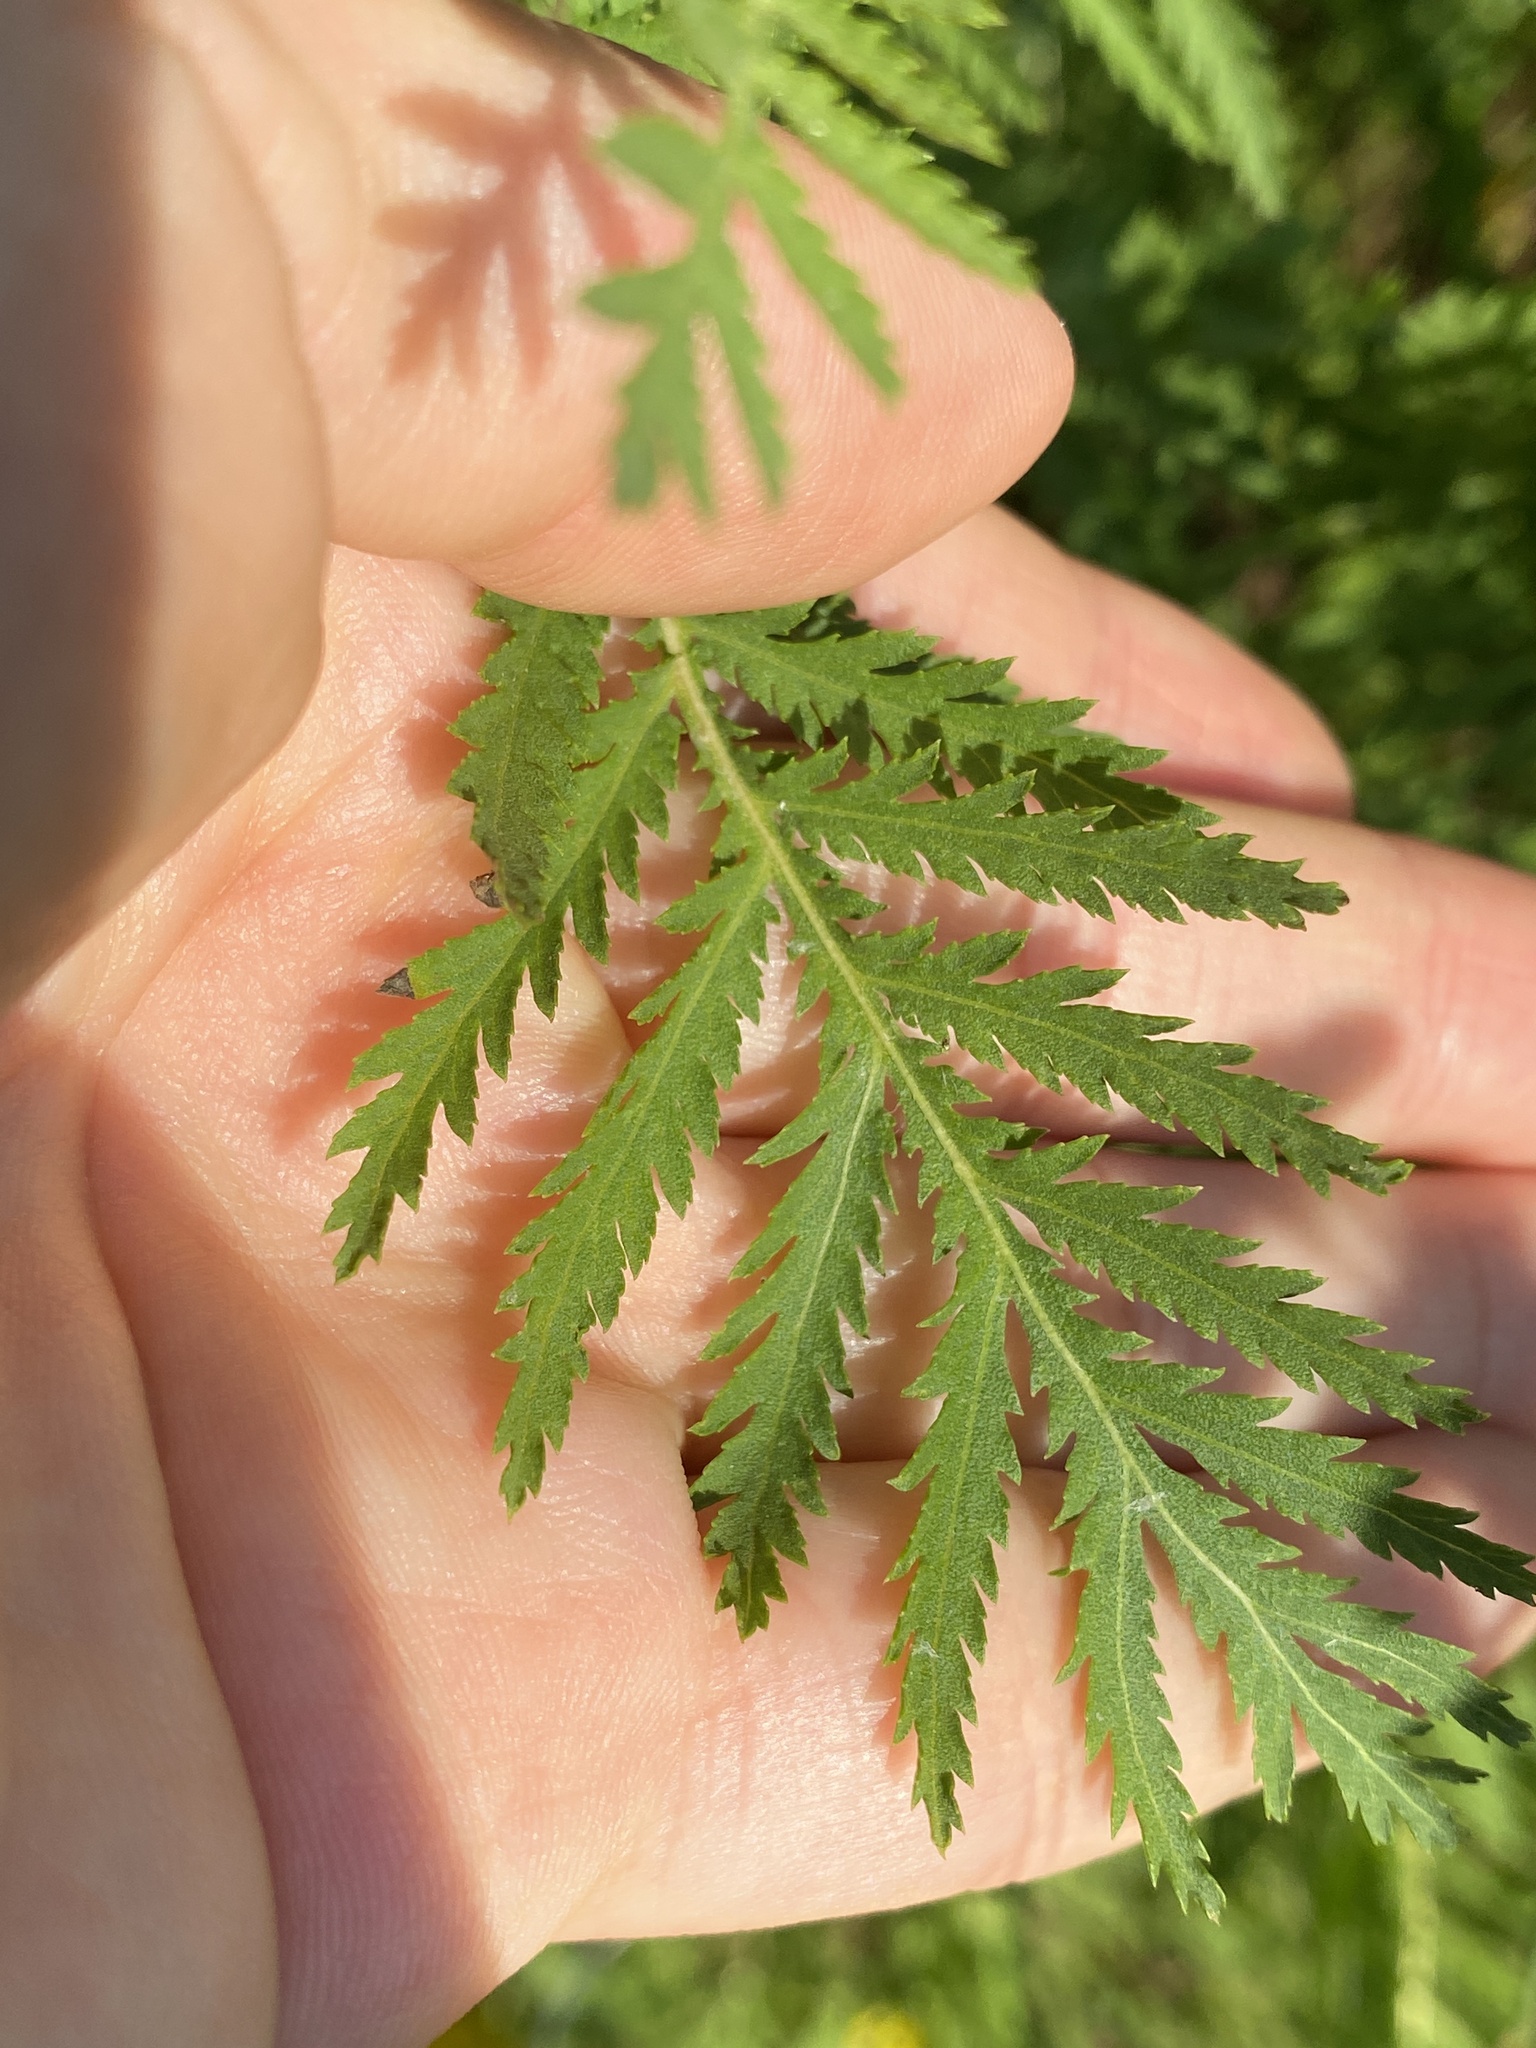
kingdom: Plantae
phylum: Tracheophyta
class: Magnoliopsida
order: Asterales
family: Asteraceae
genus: Tanacetum
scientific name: Tanacetum vulgare
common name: Common tansy
